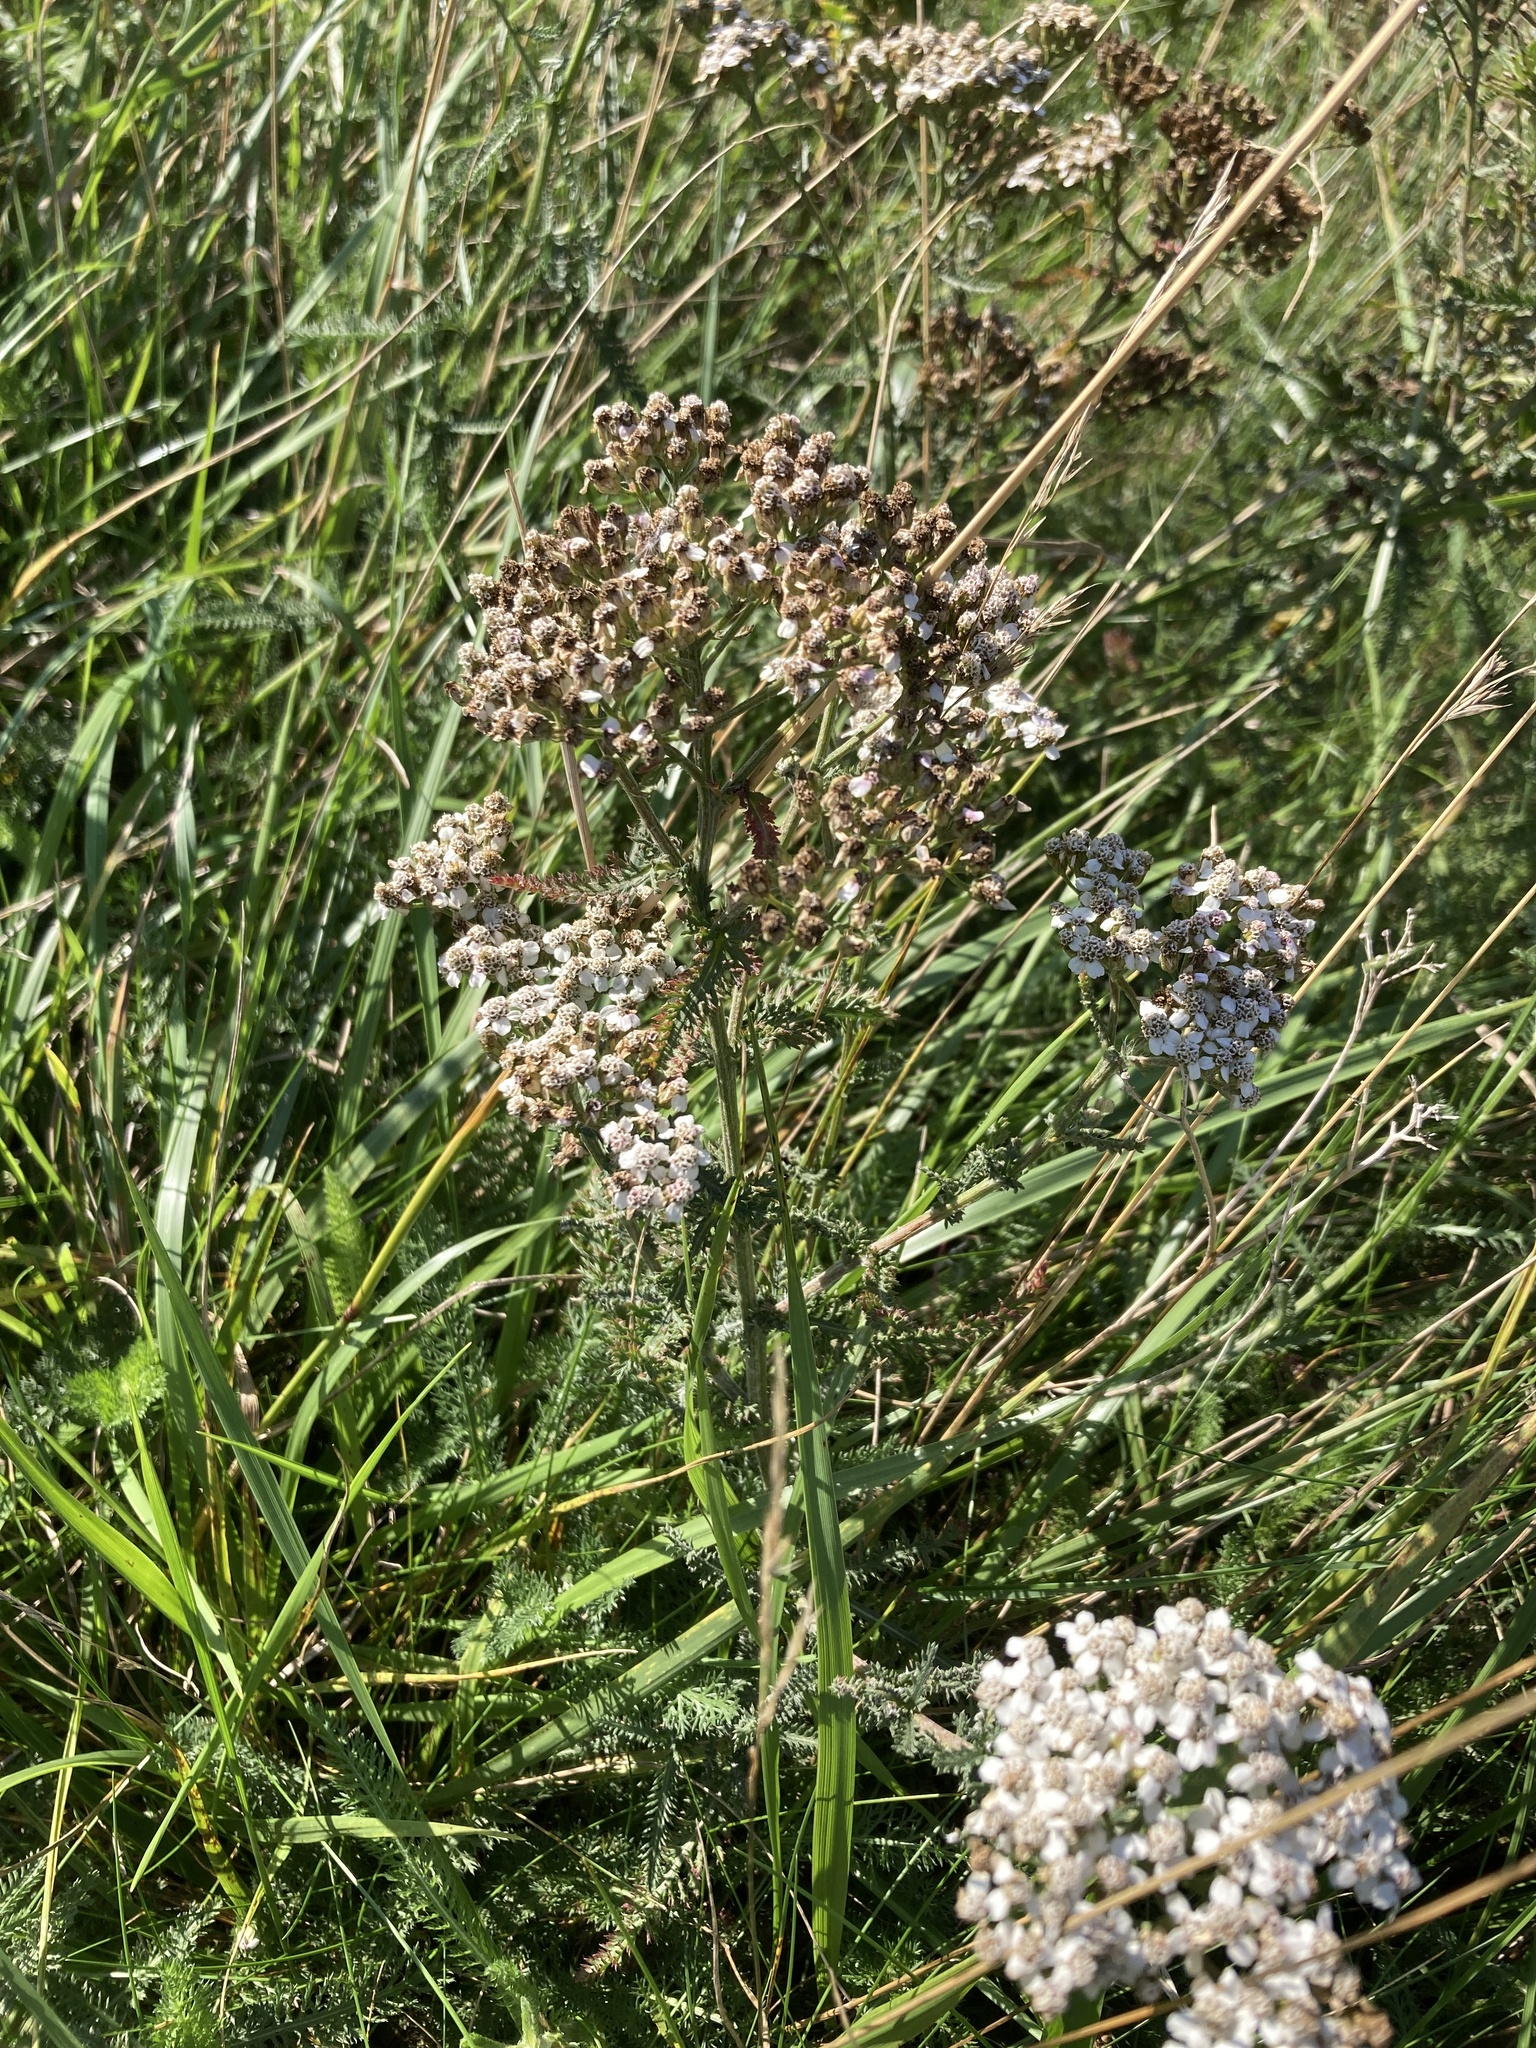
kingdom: Plantae
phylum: Tracheophyta
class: Magnoliopsida
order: Asterales
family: Asteraceae
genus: Achillea
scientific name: Achillea millefolium
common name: Yarrow
